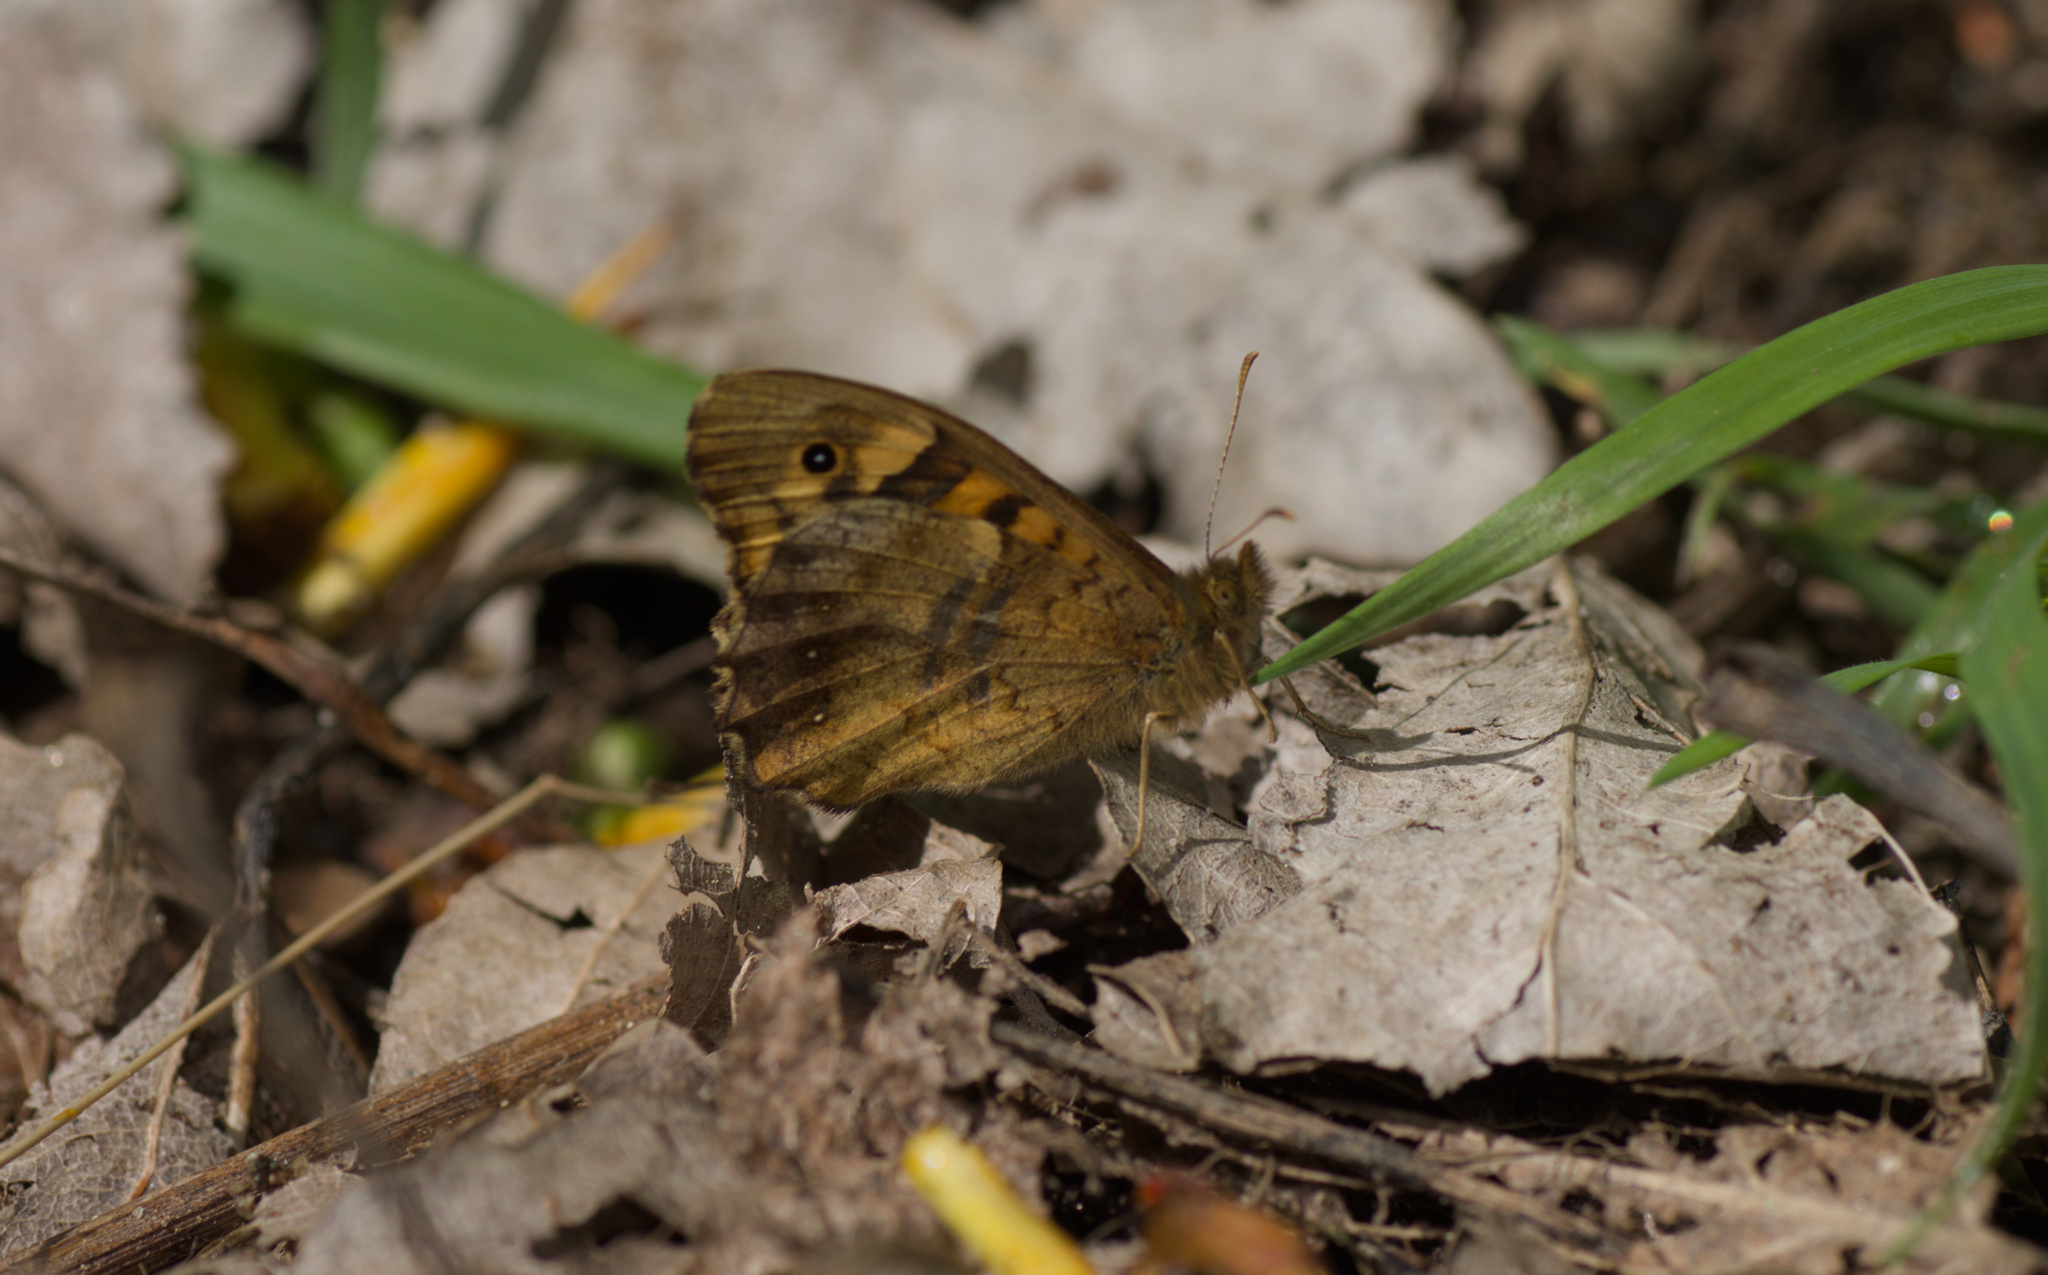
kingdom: Animalia
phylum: Arthropoda
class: Insecta
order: Lepidoptera
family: Nymphalidae
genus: Pararge
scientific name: Pararge aegeria
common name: Speckled wood
